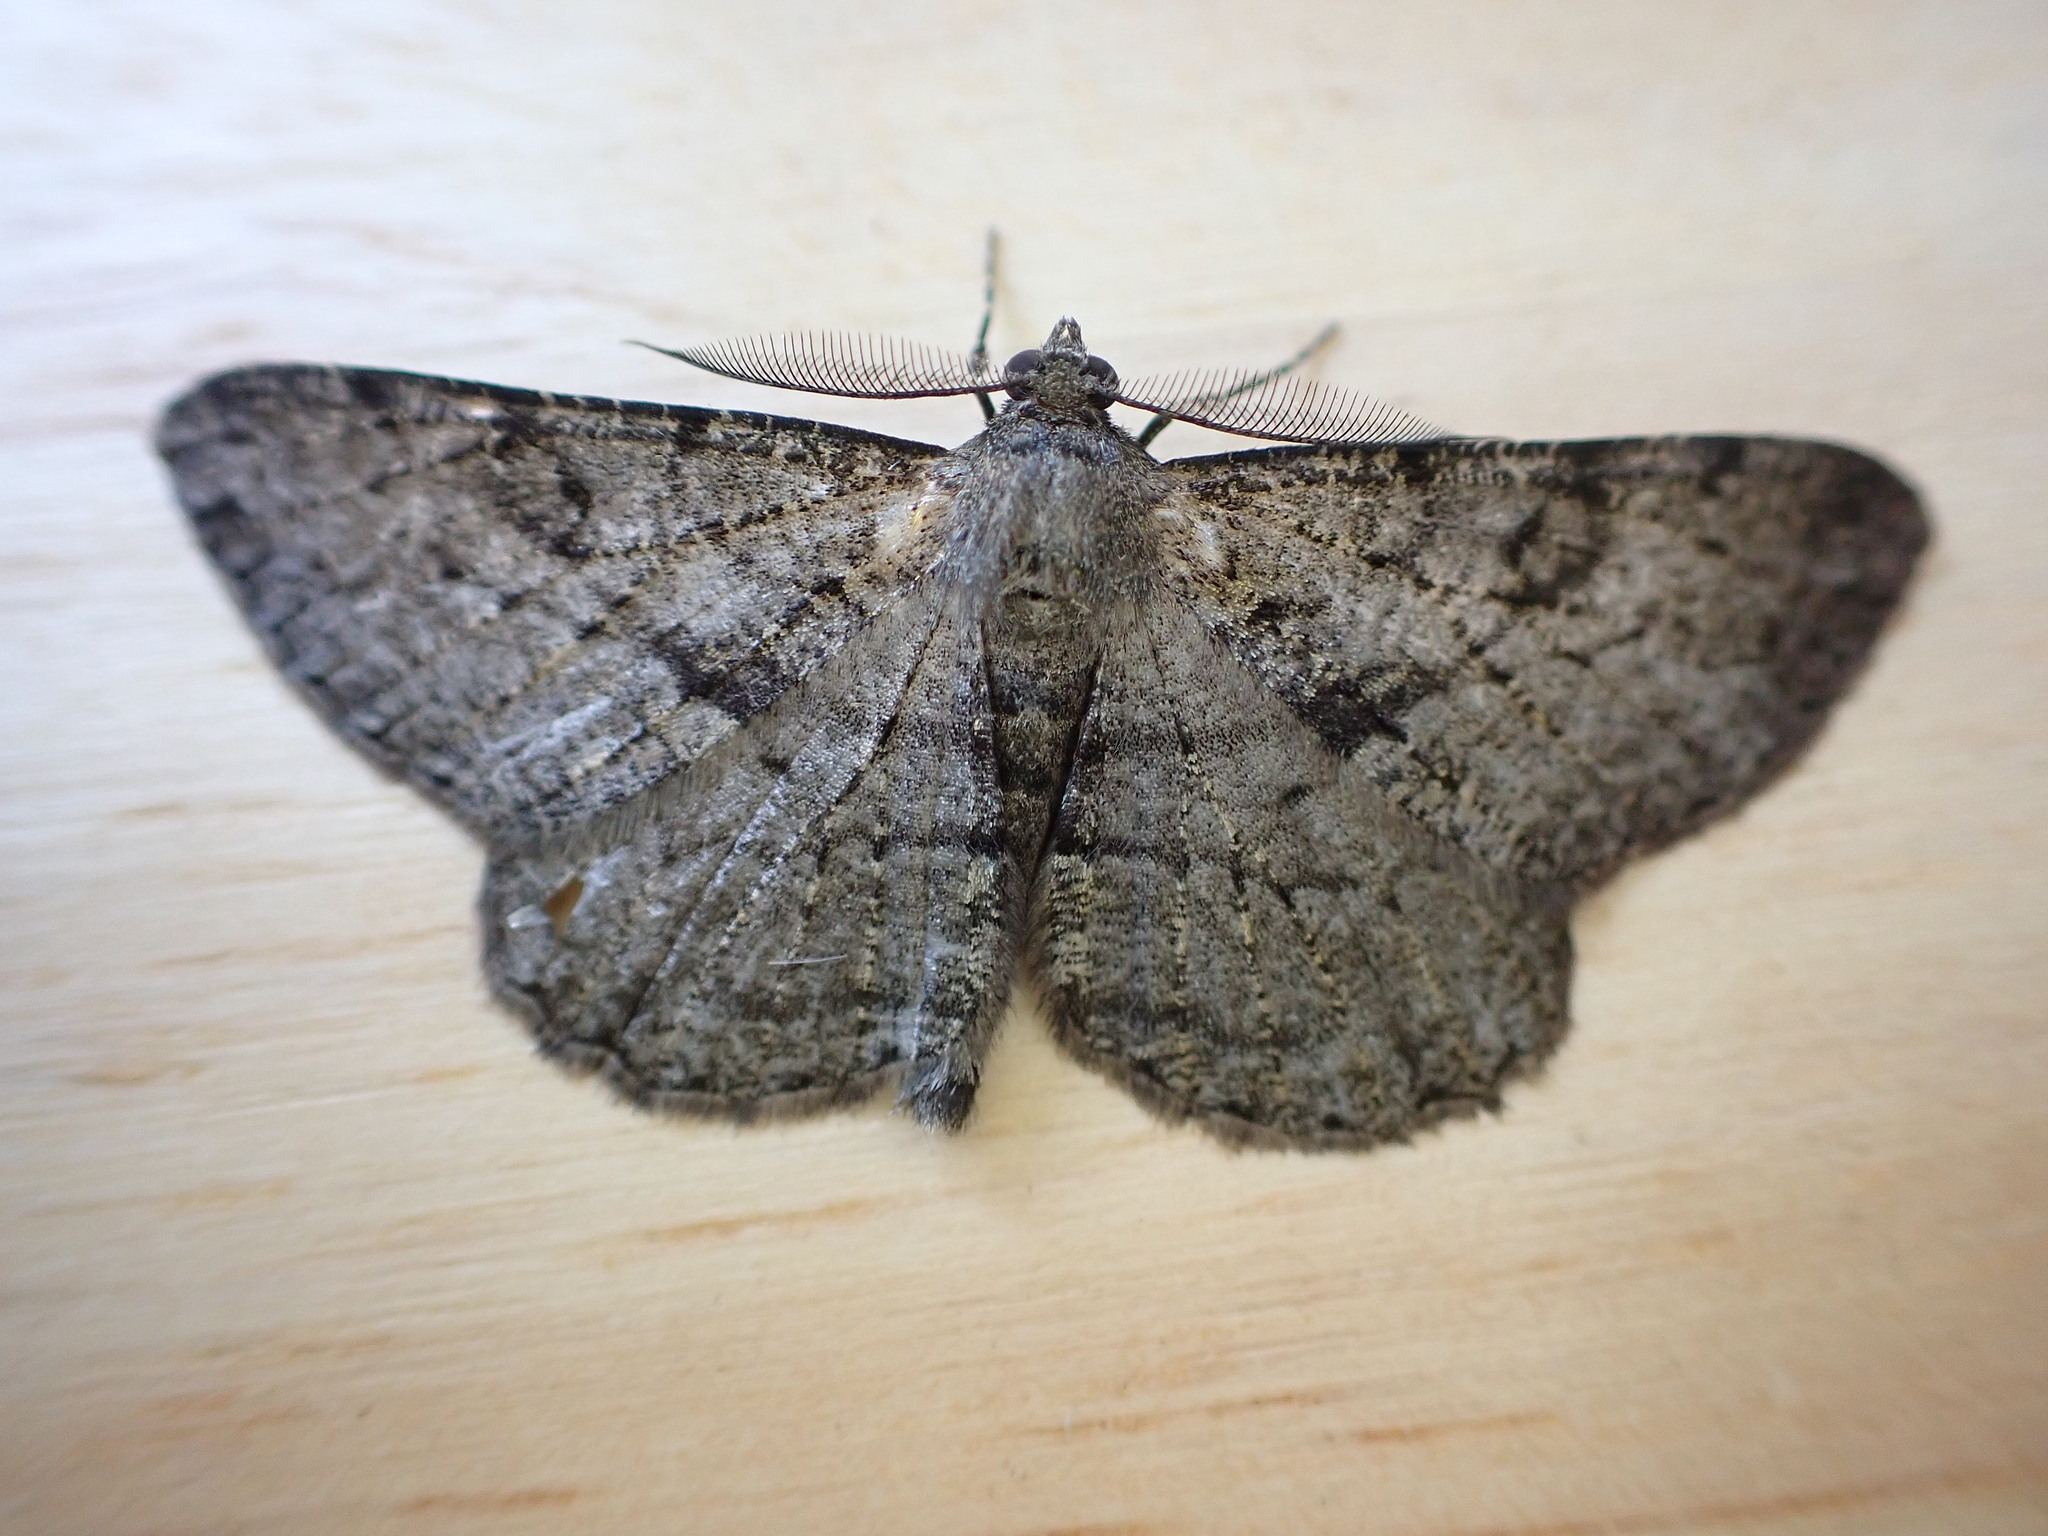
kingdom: Animalia
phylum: Arthropoda
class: Insecta
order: Lepidoptera
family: Geometridae
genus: Peribatodes
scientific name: Peribatodes rhomboidaria
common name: Willow beauty
